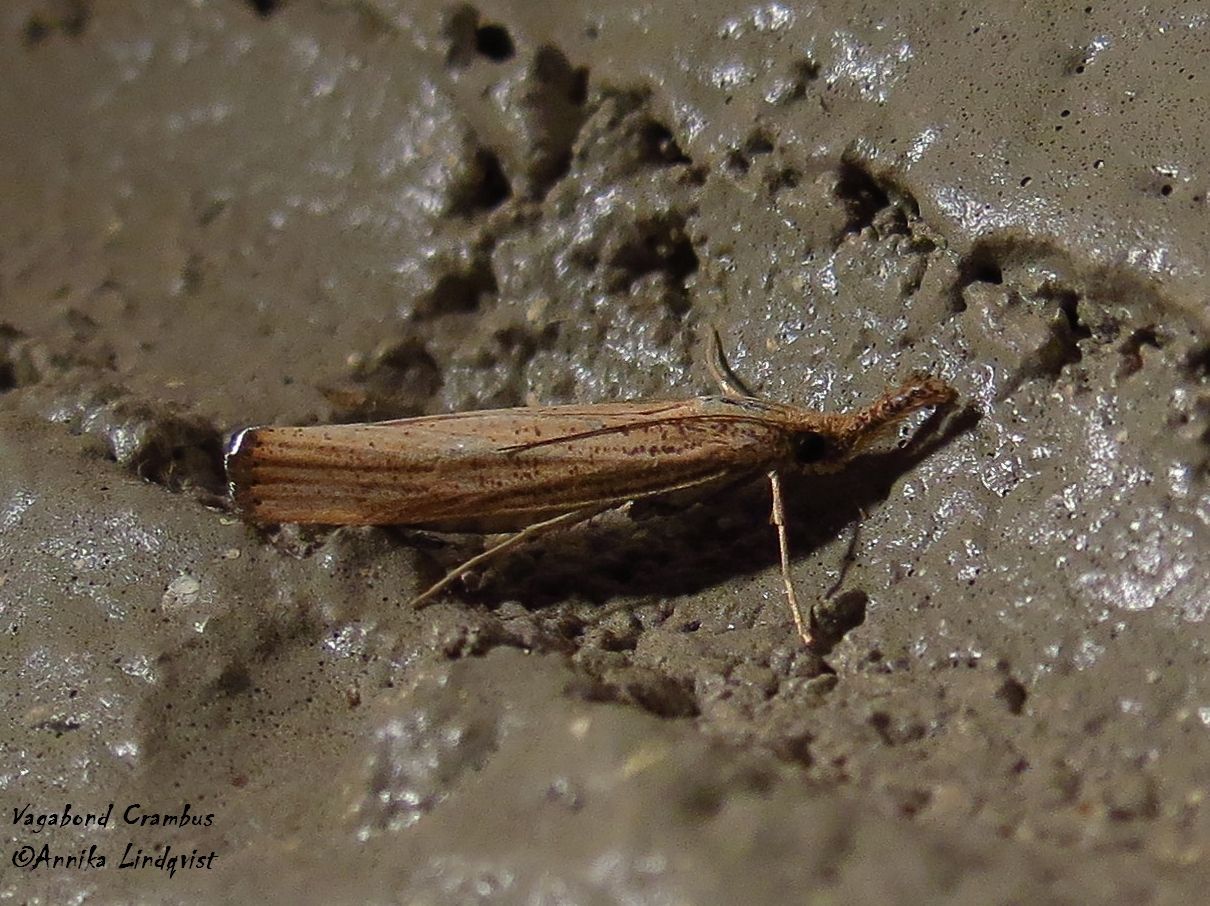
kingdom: Animalia
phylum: Arthropoda
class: Insecta
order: Lepidoptera
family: Crambidae
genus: Agriphila
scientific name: Agriphila vulgivagellus
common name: Vagabond crambus moth
